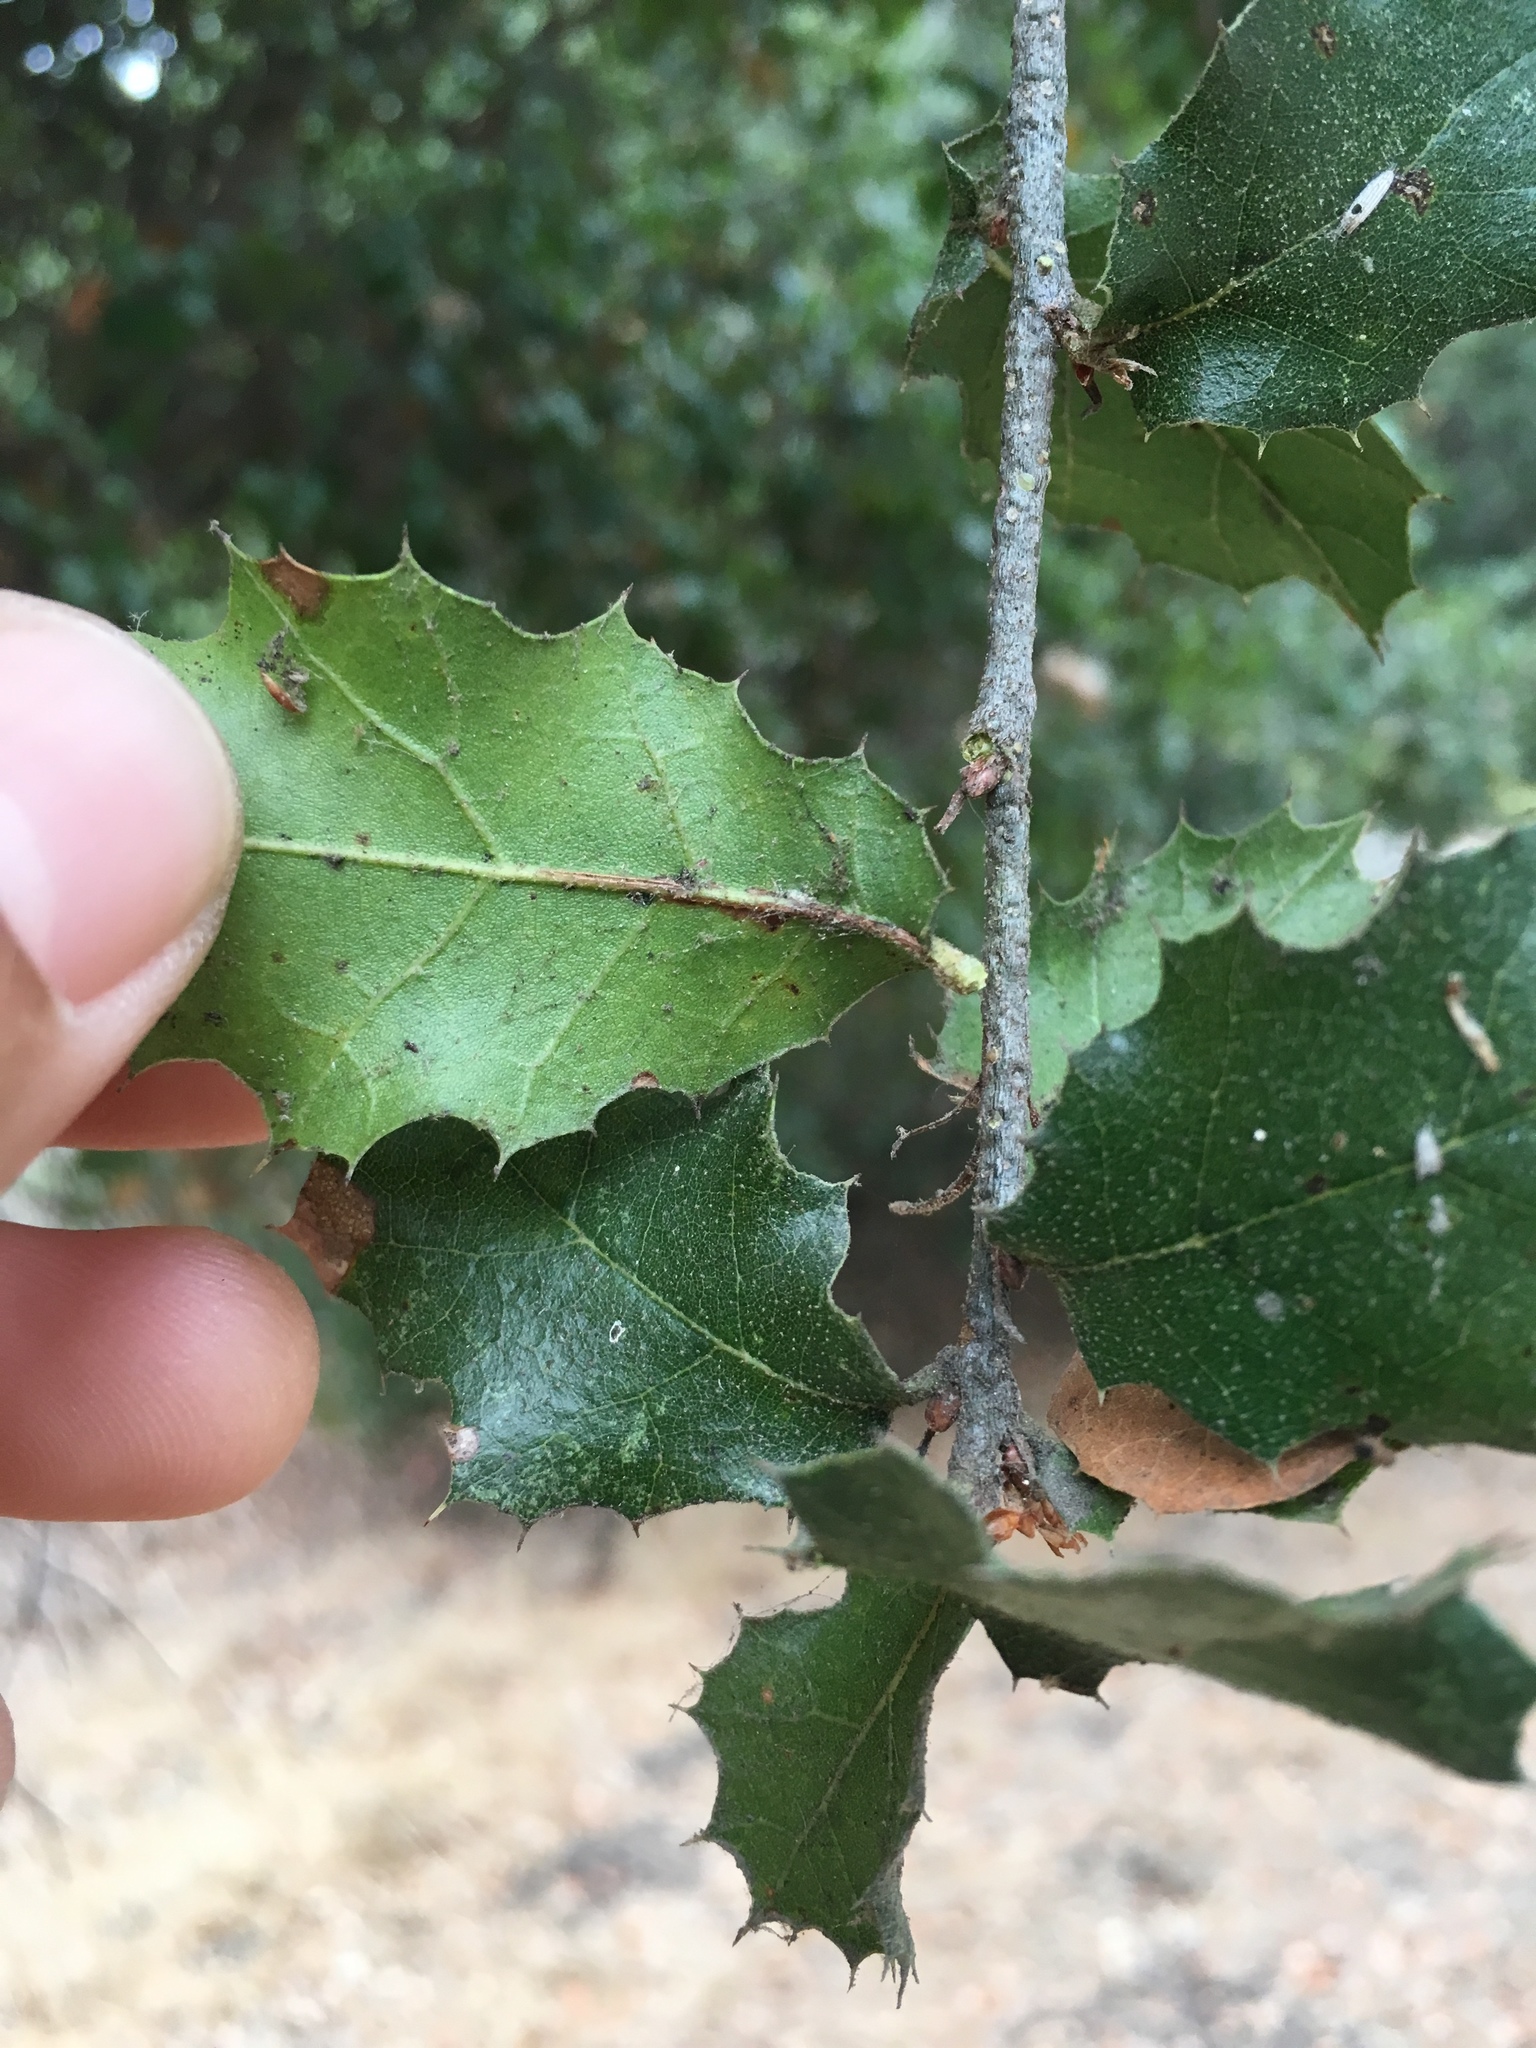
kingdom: Plantae
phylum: Tracheophyta
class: Magnoliopsida
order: Fagales
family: Fagaceae
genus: Quercus
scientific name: Quercus agrifolia
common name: California live oak
